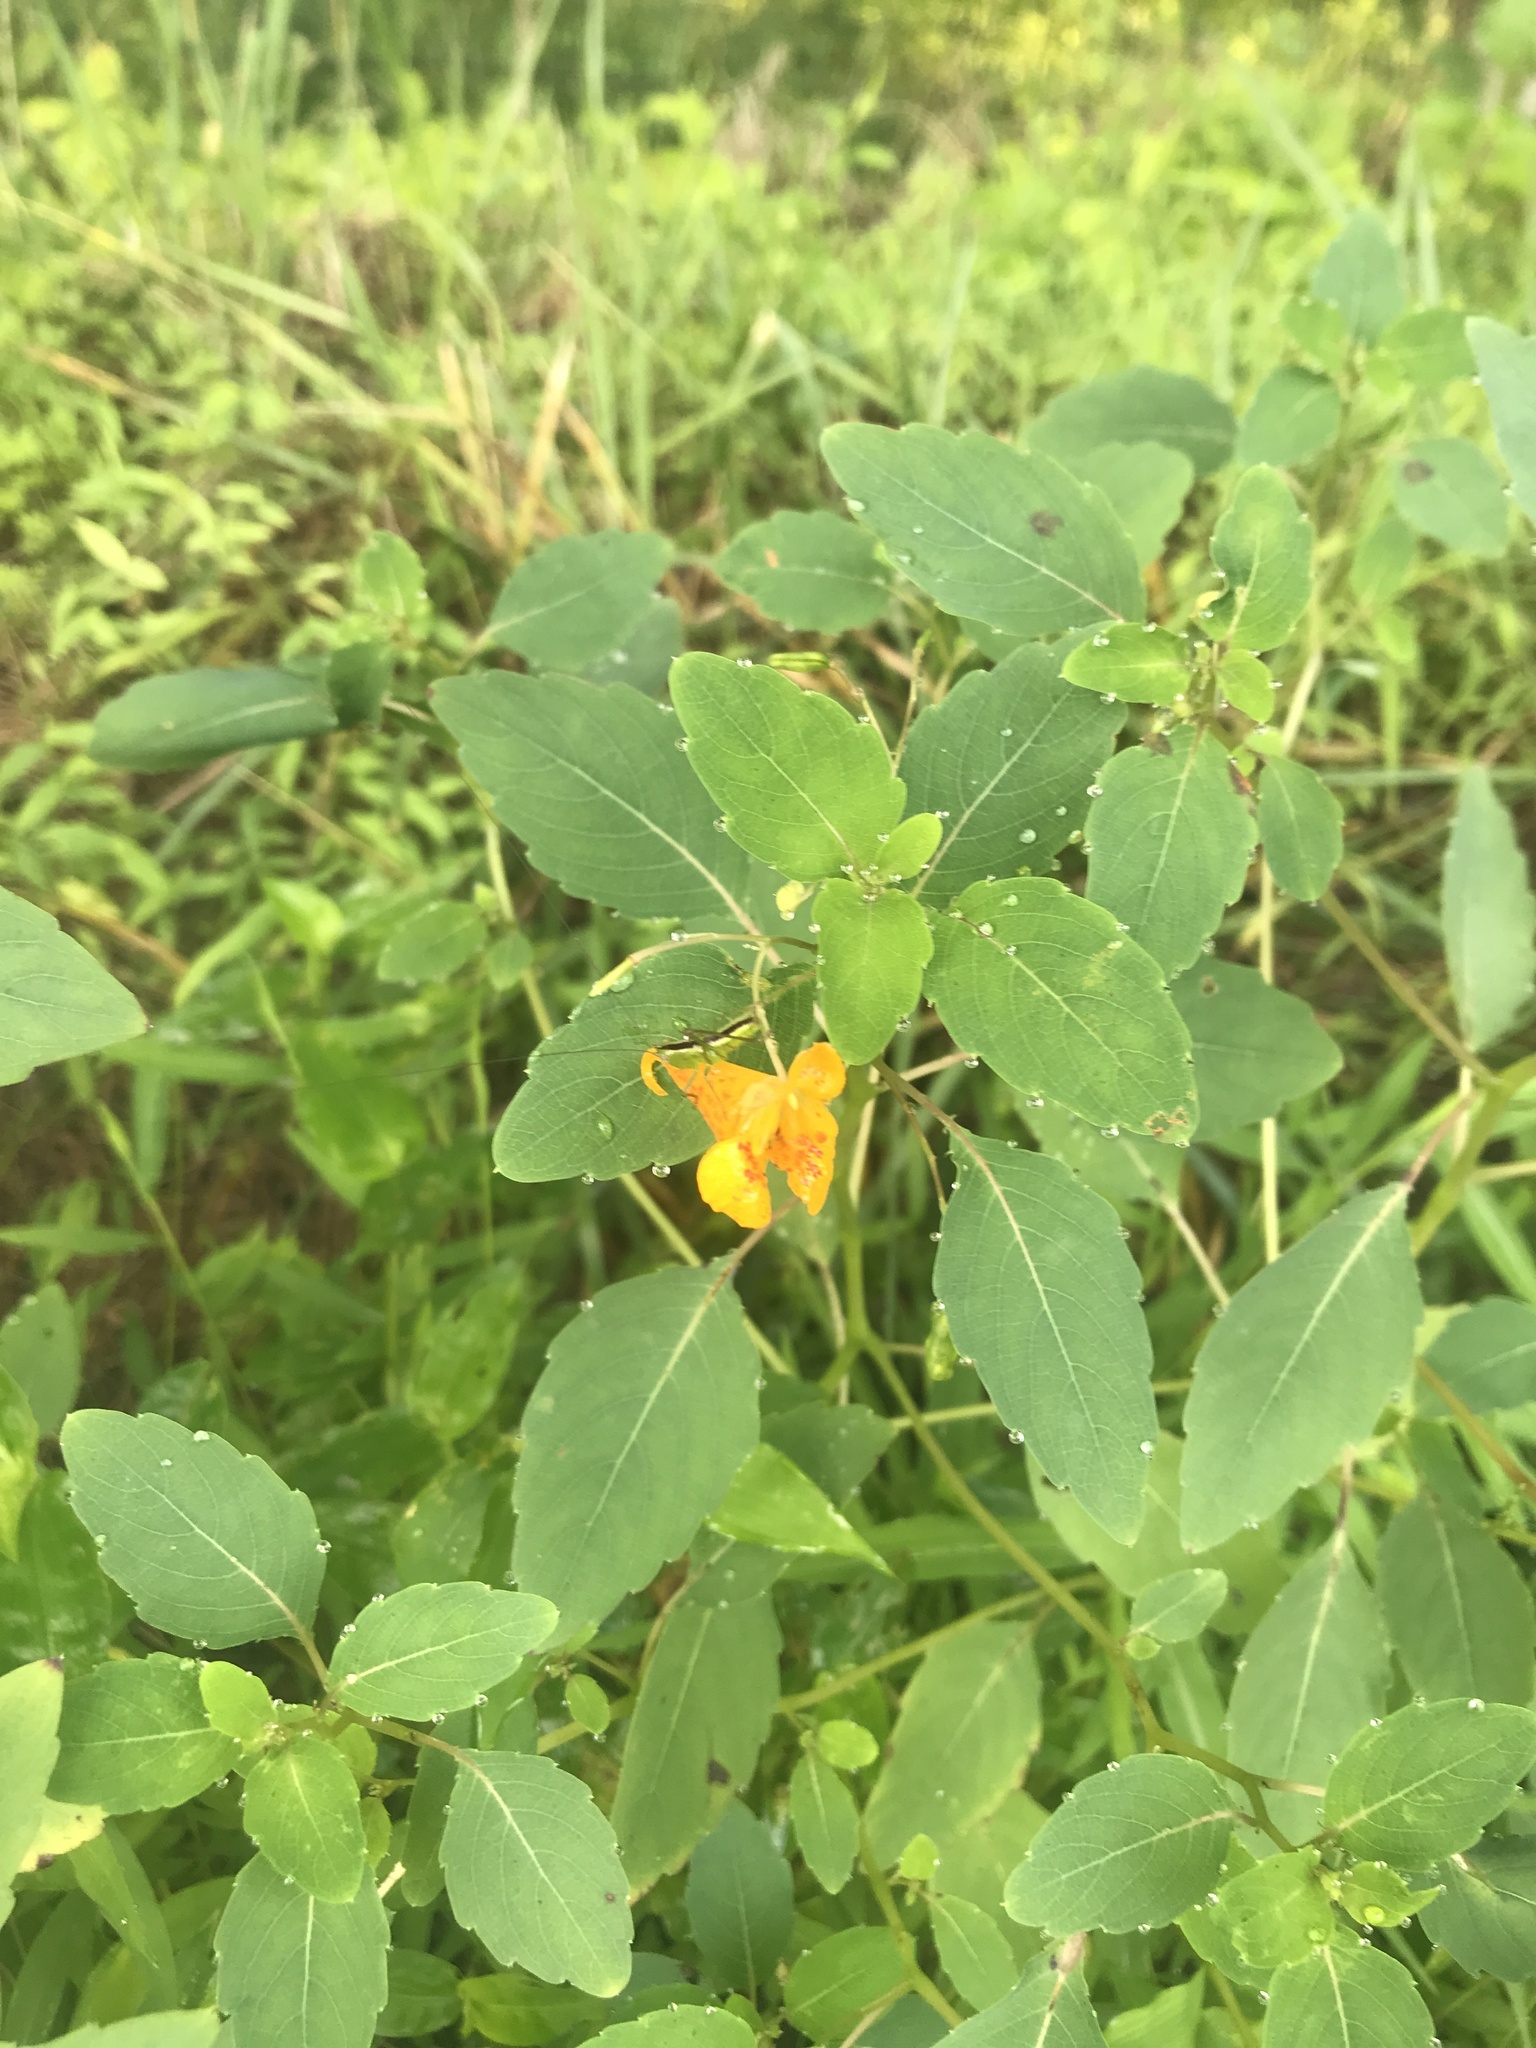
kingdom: Plantae
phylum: Tracheophyta
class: Magnoliopsida
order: Ericales
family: Balsaminaceae
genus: Impatiens
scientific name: Impatiens capensis
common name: Orange balsam
